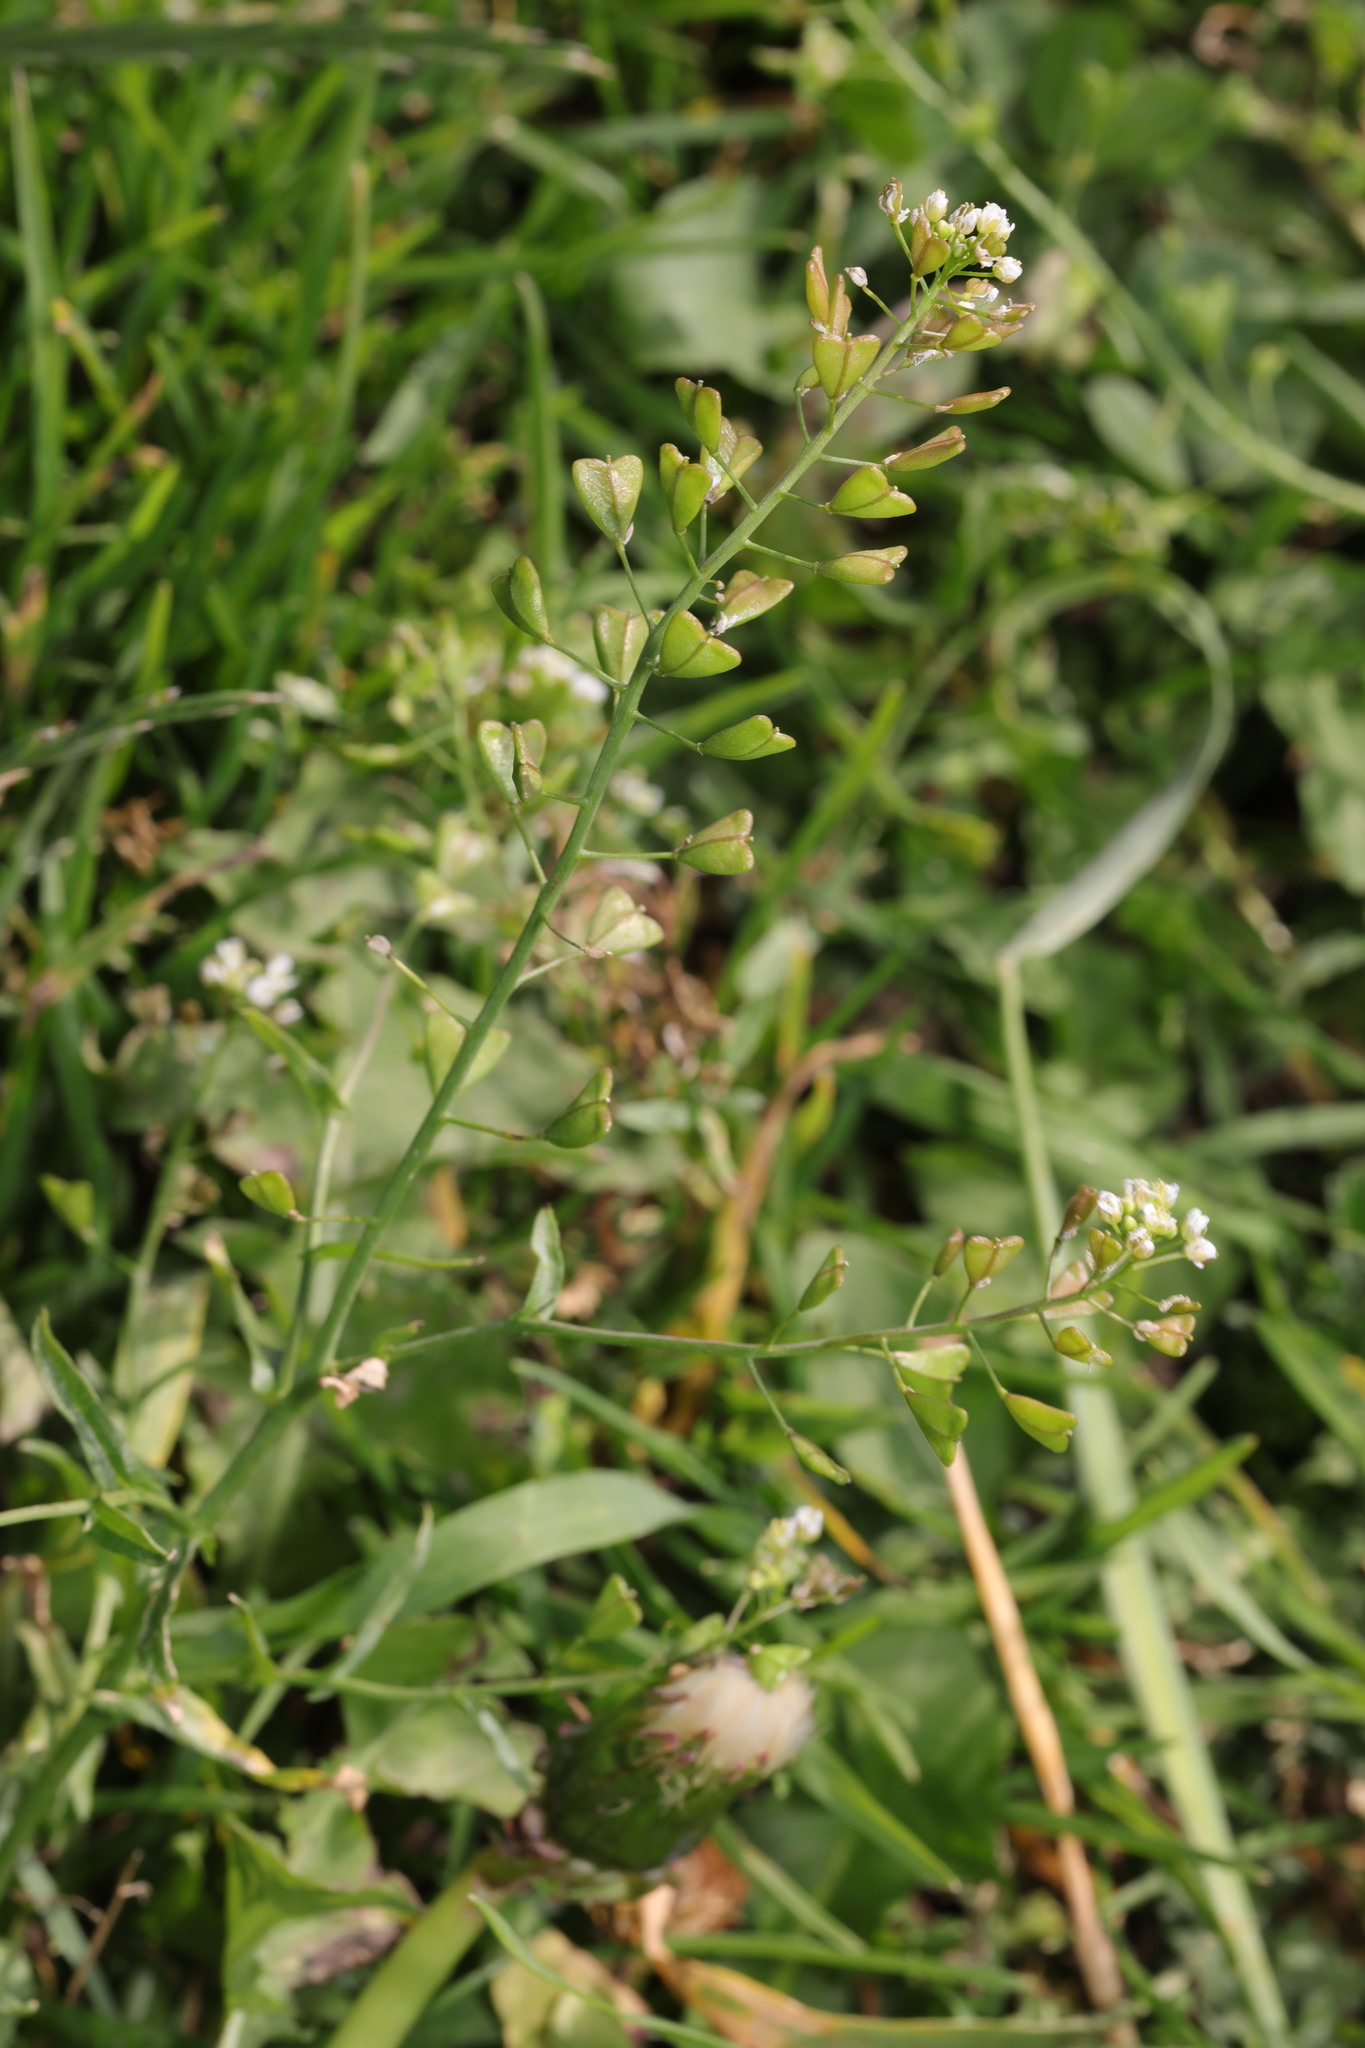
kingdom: Plantae
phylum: Tracheophyta
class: Magnoliopsida
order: Brassicales
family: Brassicaceae
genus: Capsella
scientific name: Capsella bursa-pastoris
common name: Shepherd's purse
